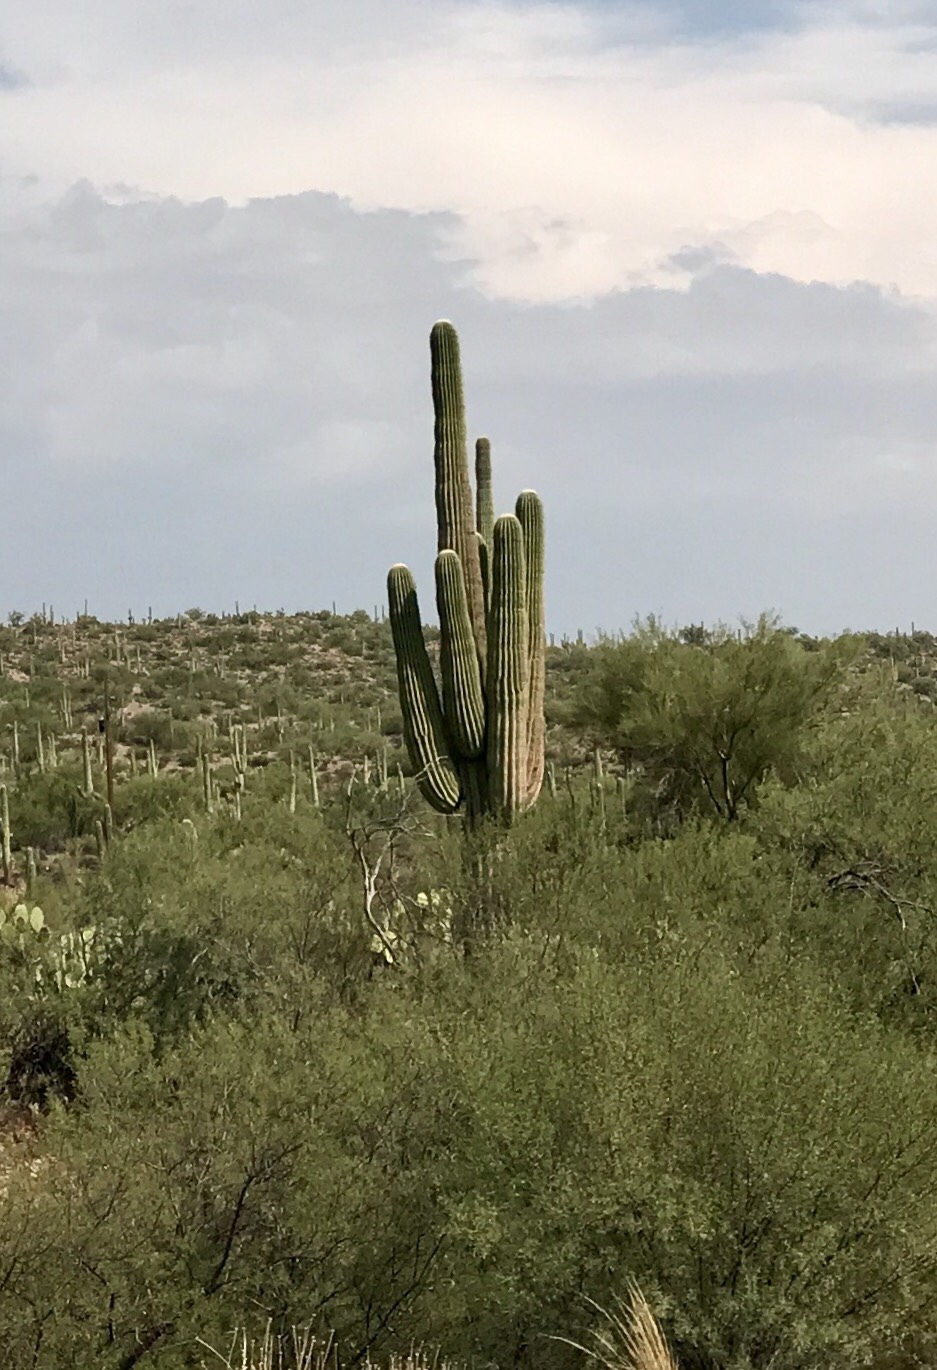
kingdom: Plantae
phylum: Tracheophyta
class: Magnoliopsida
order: Caryophyllales
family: Cactaceae
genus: Carnegiea
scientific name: Carnegiea gigantea
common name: Saguaro
